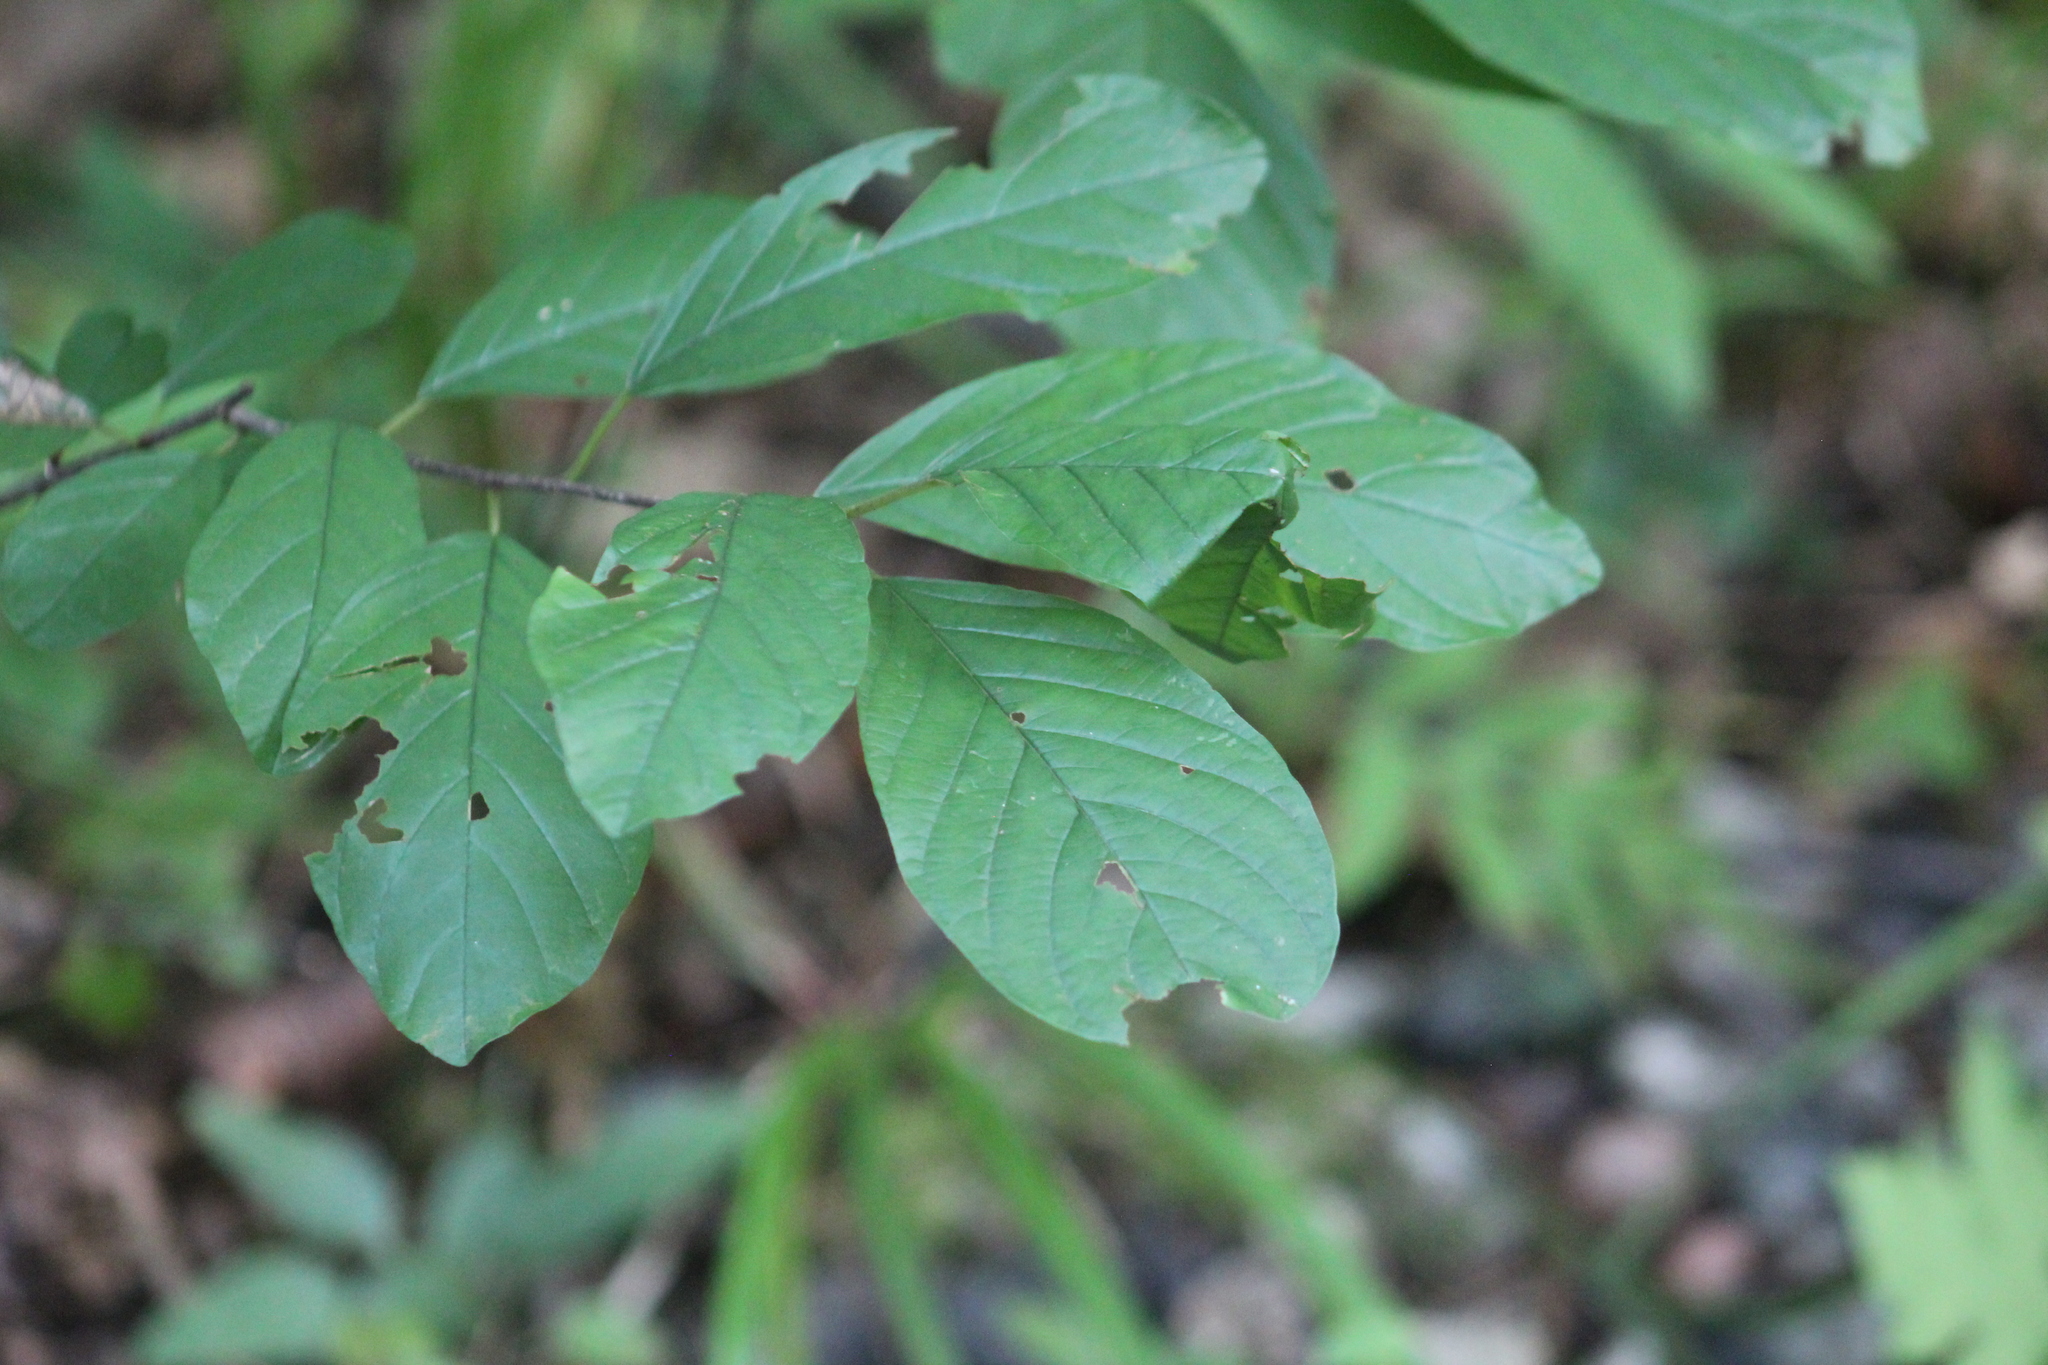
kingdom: Plantae
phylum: Tracheophyta
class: Magnoliopsida
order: Rosales
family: Rhamnaceae
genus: Frangula
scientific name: Frangula alnus
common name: Alder buckthorn
